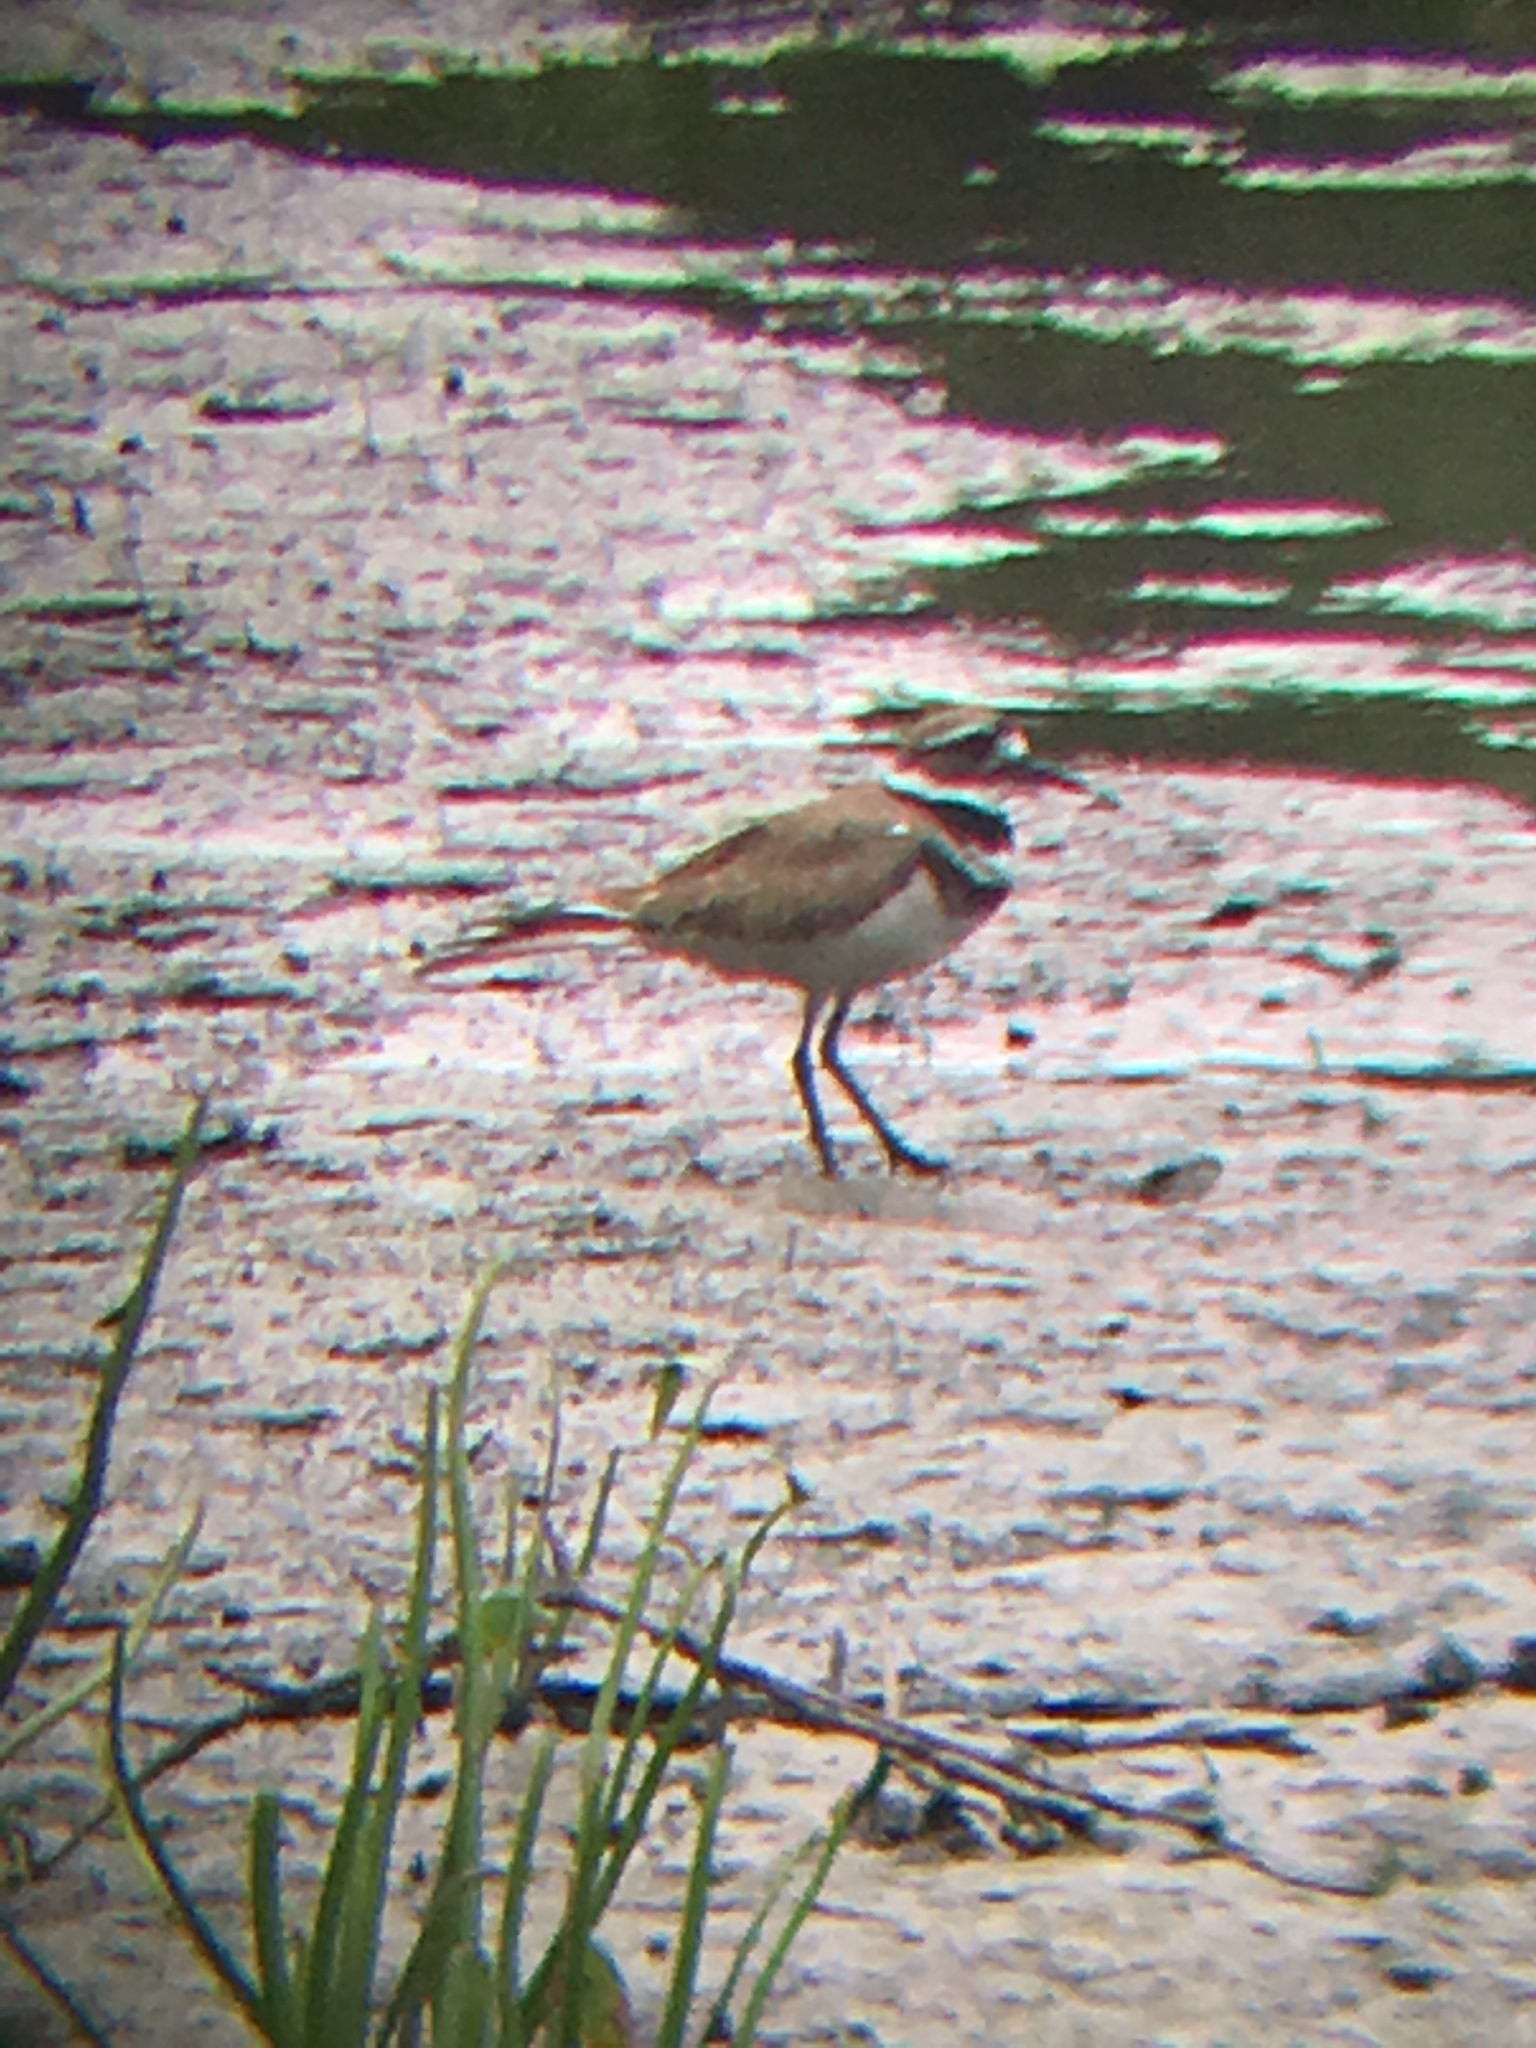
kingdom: Animalia
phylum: Chordata
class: Aves
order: Charadriiformes
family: Charadriidae
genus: Charadrius
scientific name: Charadrius vociferus
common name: Killdeer
